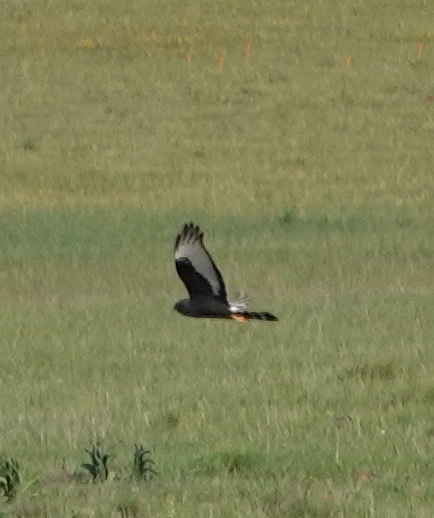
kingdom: Animalia
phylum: Chordata
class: Aves
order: Accipitriformes
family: Accipitridae
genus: Circus
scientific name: Circus maurus
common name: Black harrier
